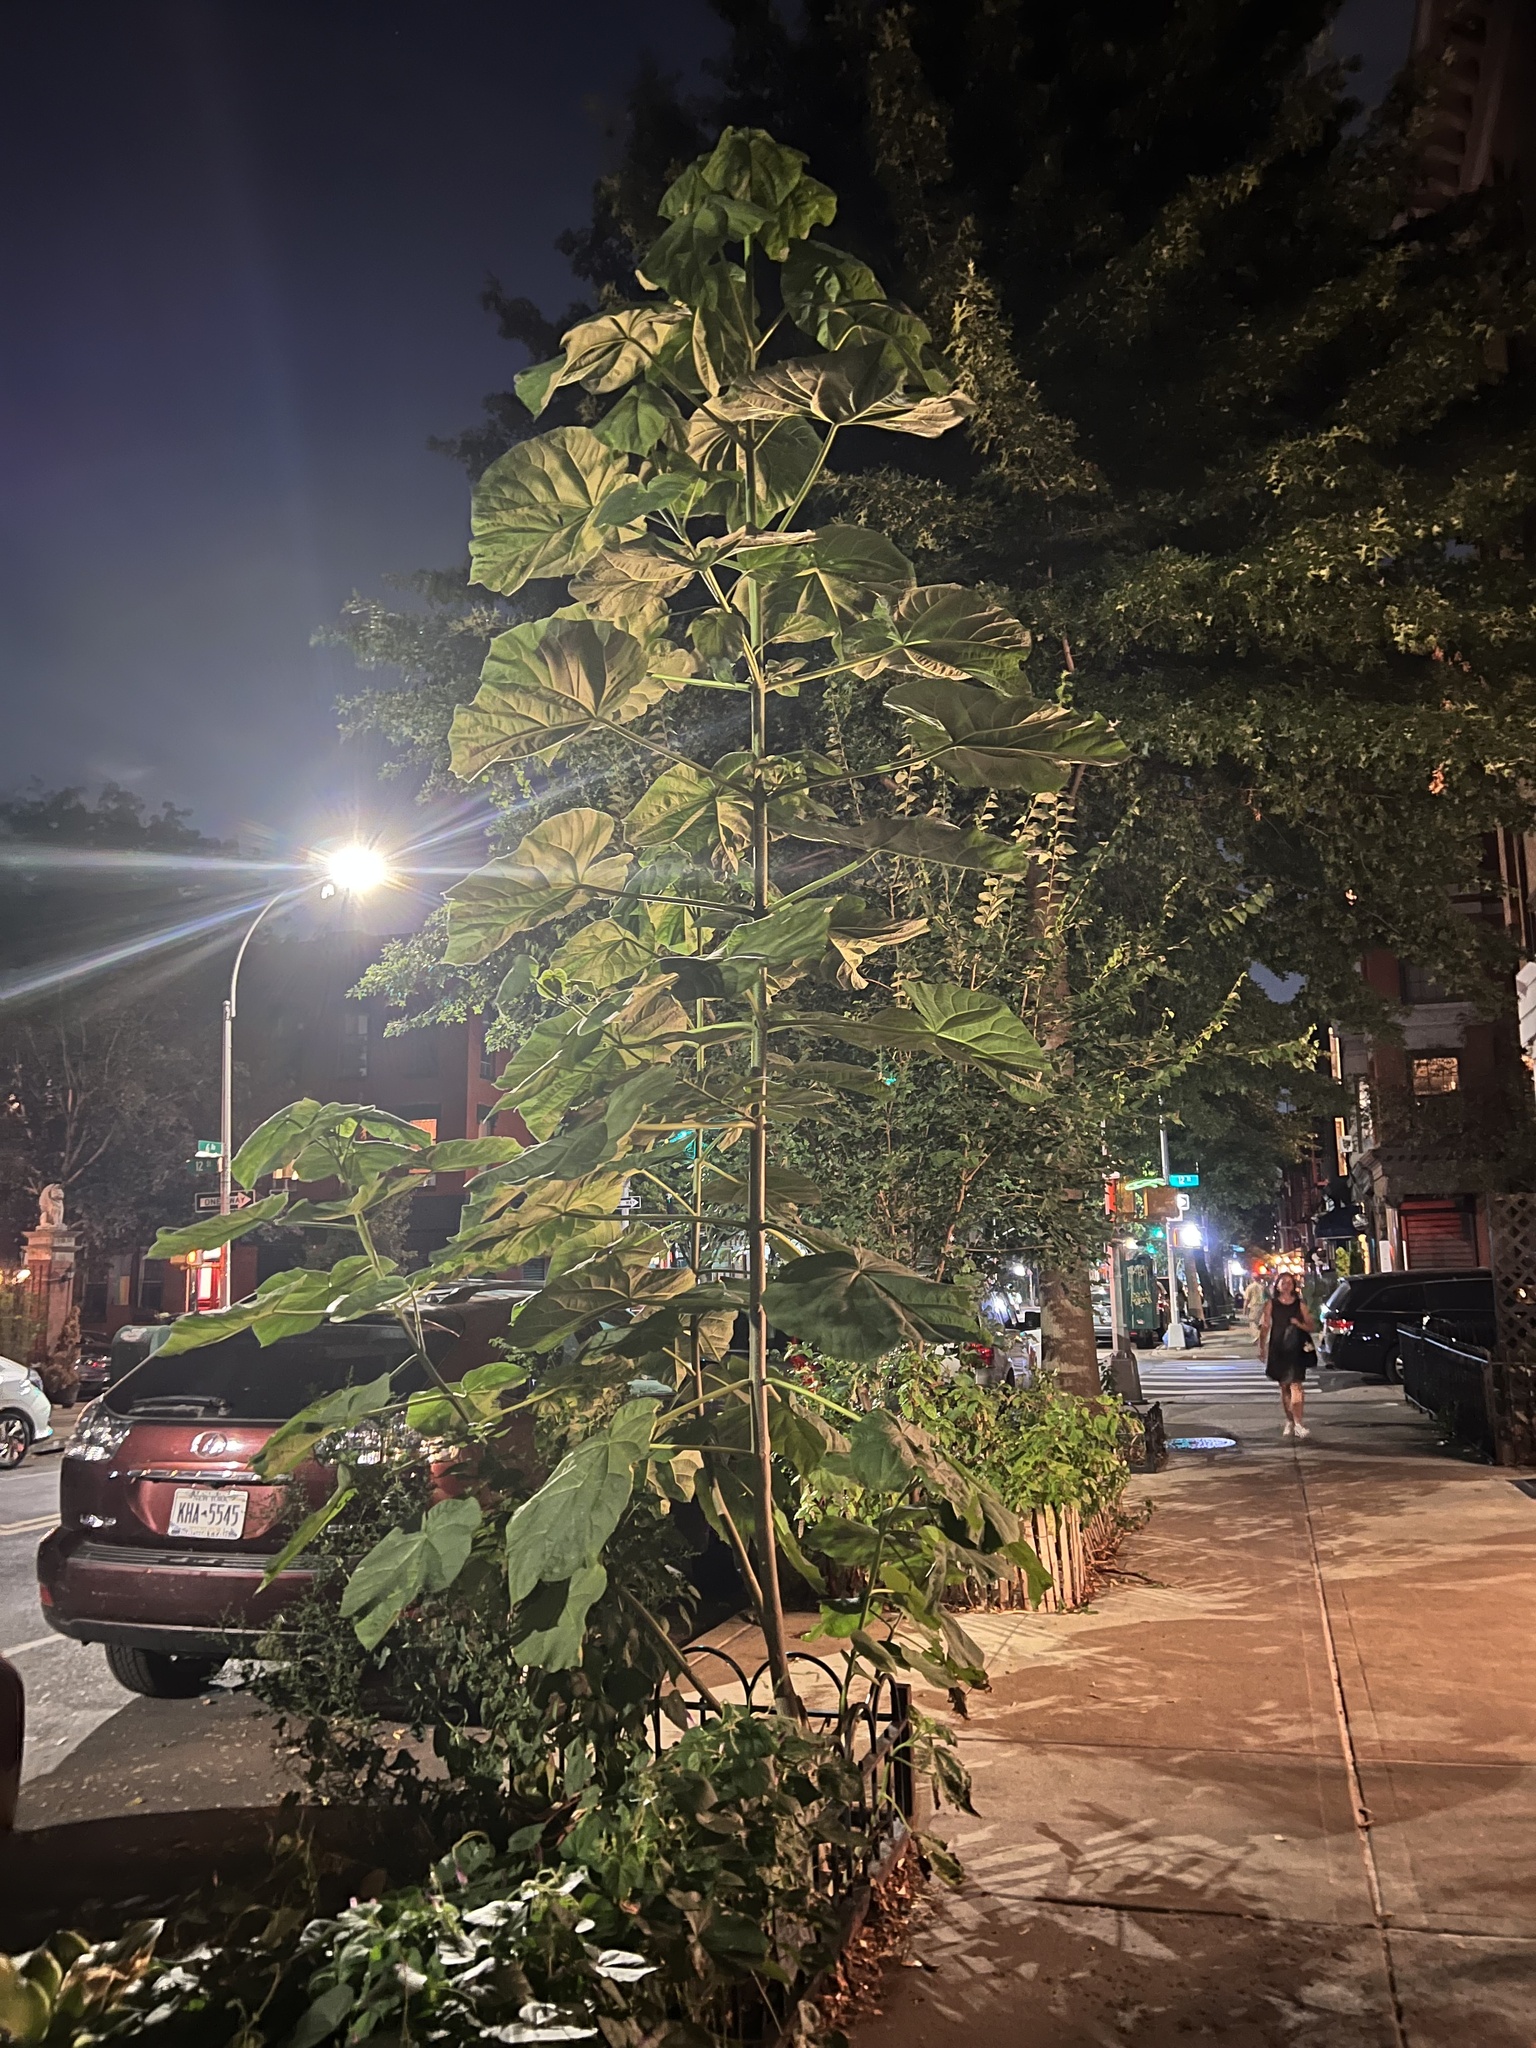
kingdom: Plantae
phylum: Tracheophyta
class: Magnoliopsida
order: Lamiales
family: Paulowniaceae
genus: Paulownia
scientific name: Paulownia tomentosa
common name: Foxglove-tree
